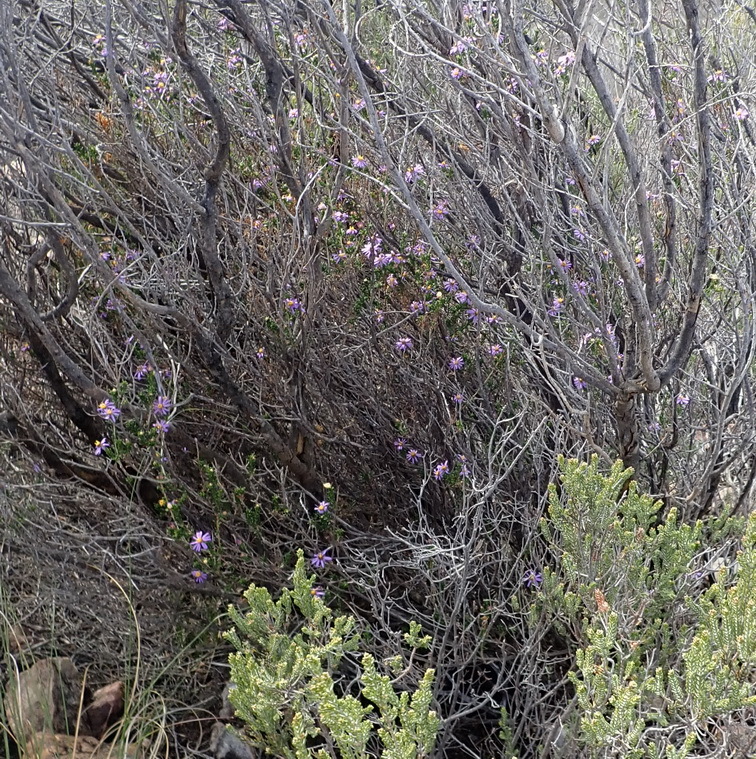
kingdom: Plantae
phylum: Tracheophyta
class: Magnoliopsida
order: Asterales
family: Asteraceae
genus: Felicia
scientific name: Felicia filifolia
